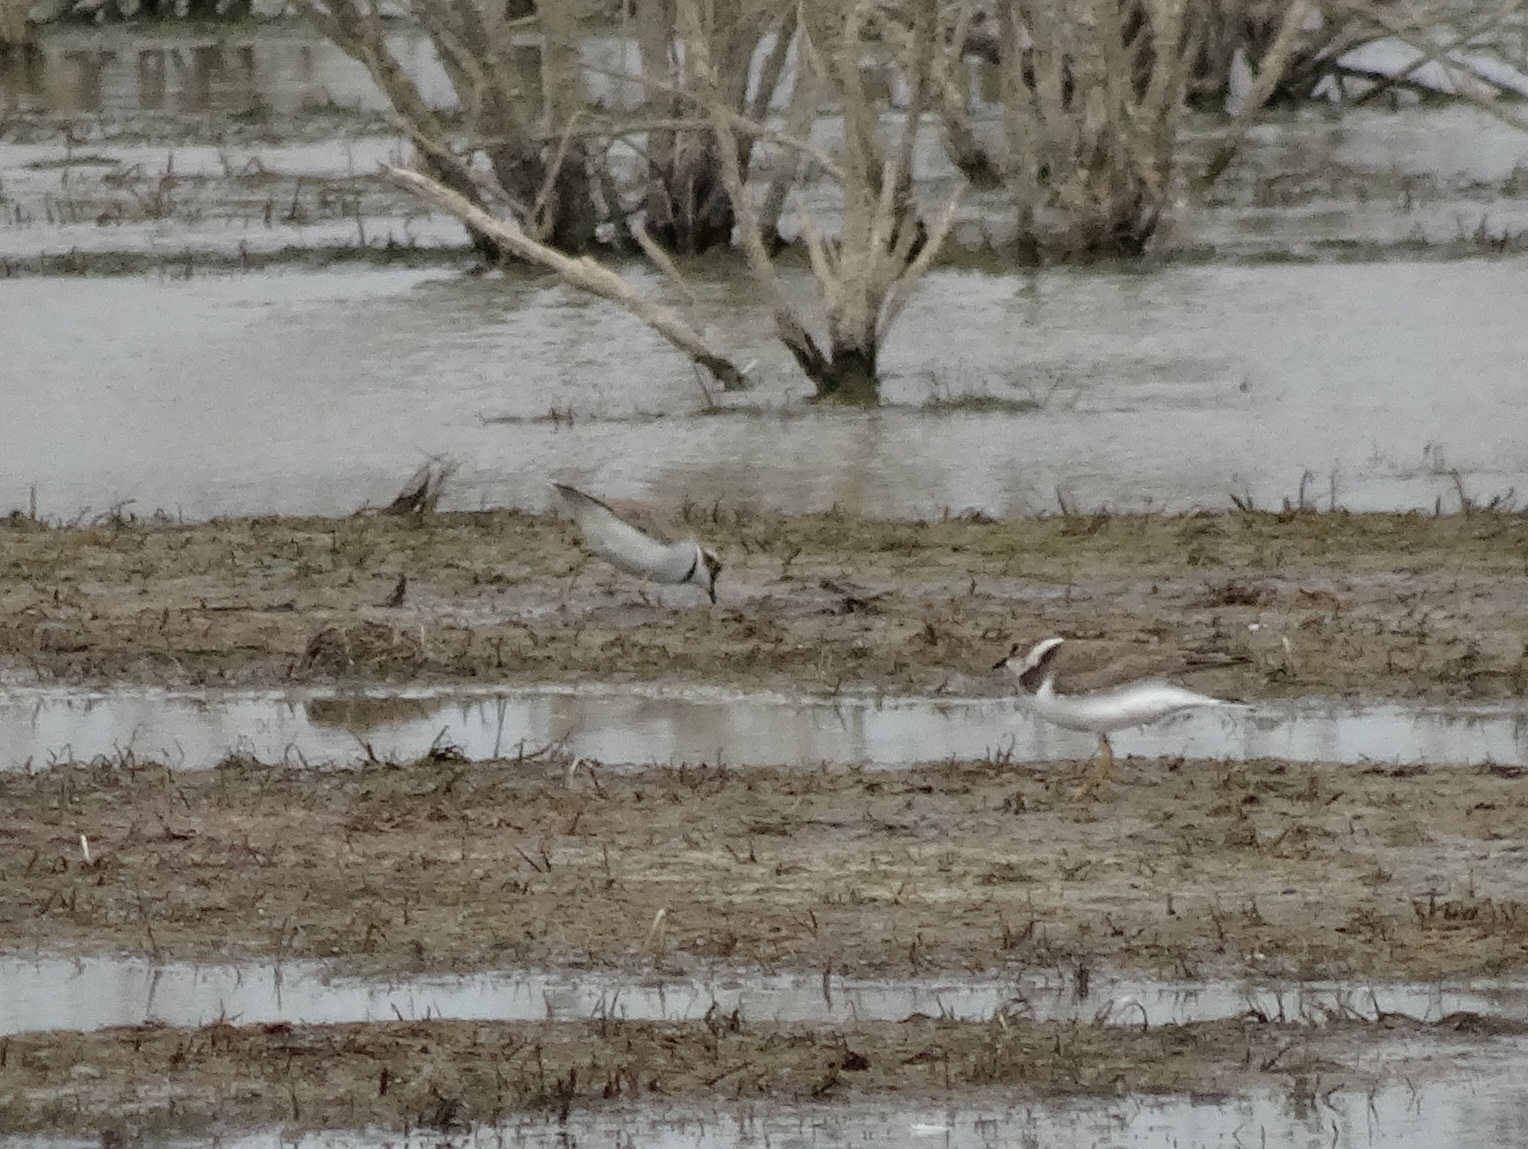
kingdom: Animalia
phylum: Chordata
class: Aves
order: Charadriiformes
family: Charadriidae
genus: Charadrius
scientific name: Charadrius dubius
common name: Little ringed plover
